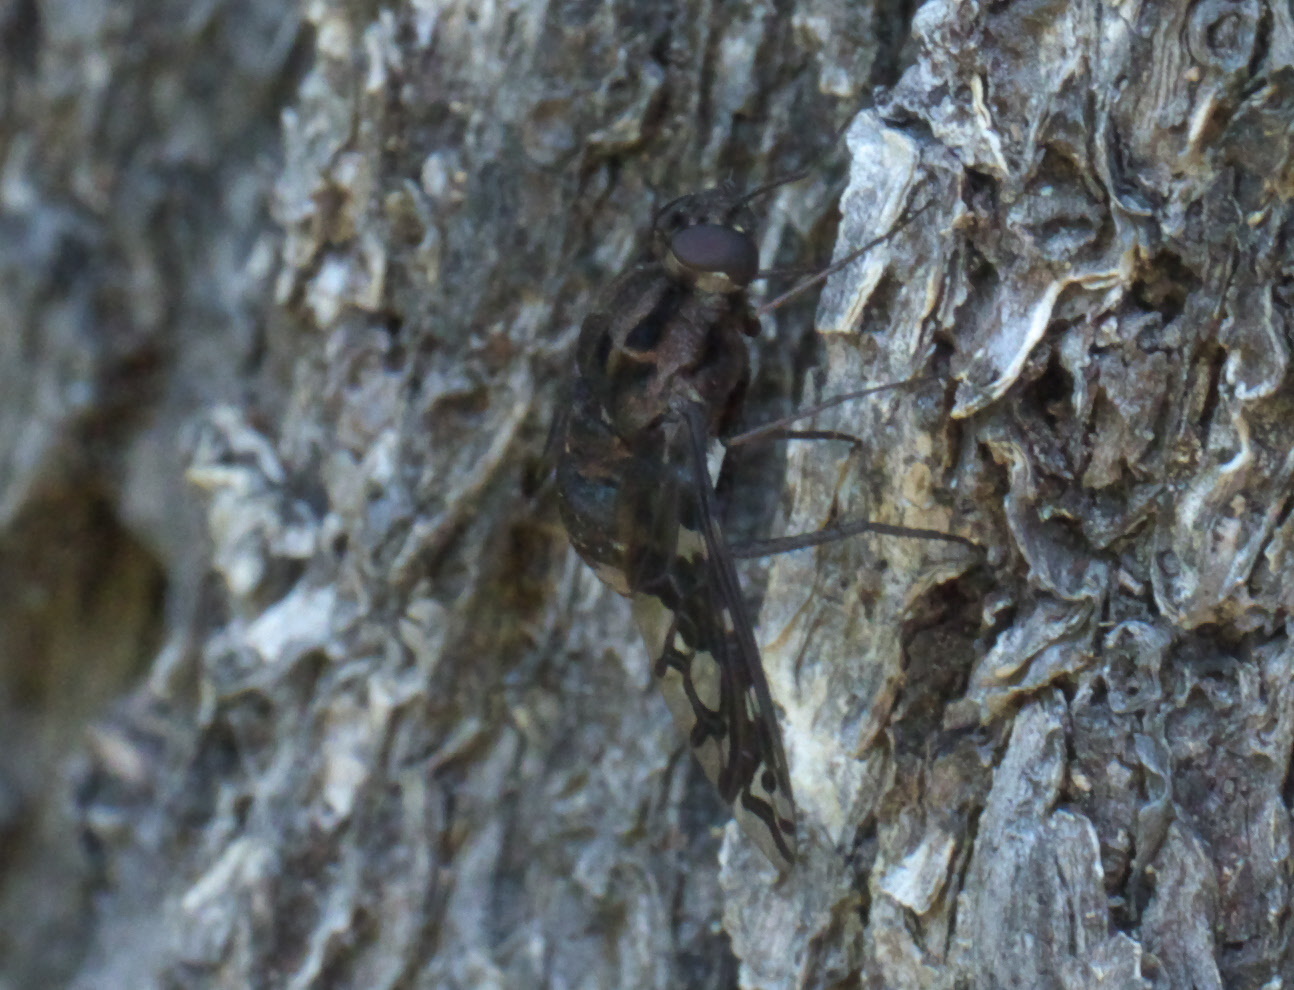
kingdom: Animalia
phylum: Arthropoda
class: Insecta
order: Diptera
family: Bombyliidae
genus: Xenox
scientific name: Xenox tigrinus
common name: Tiger bee fly
